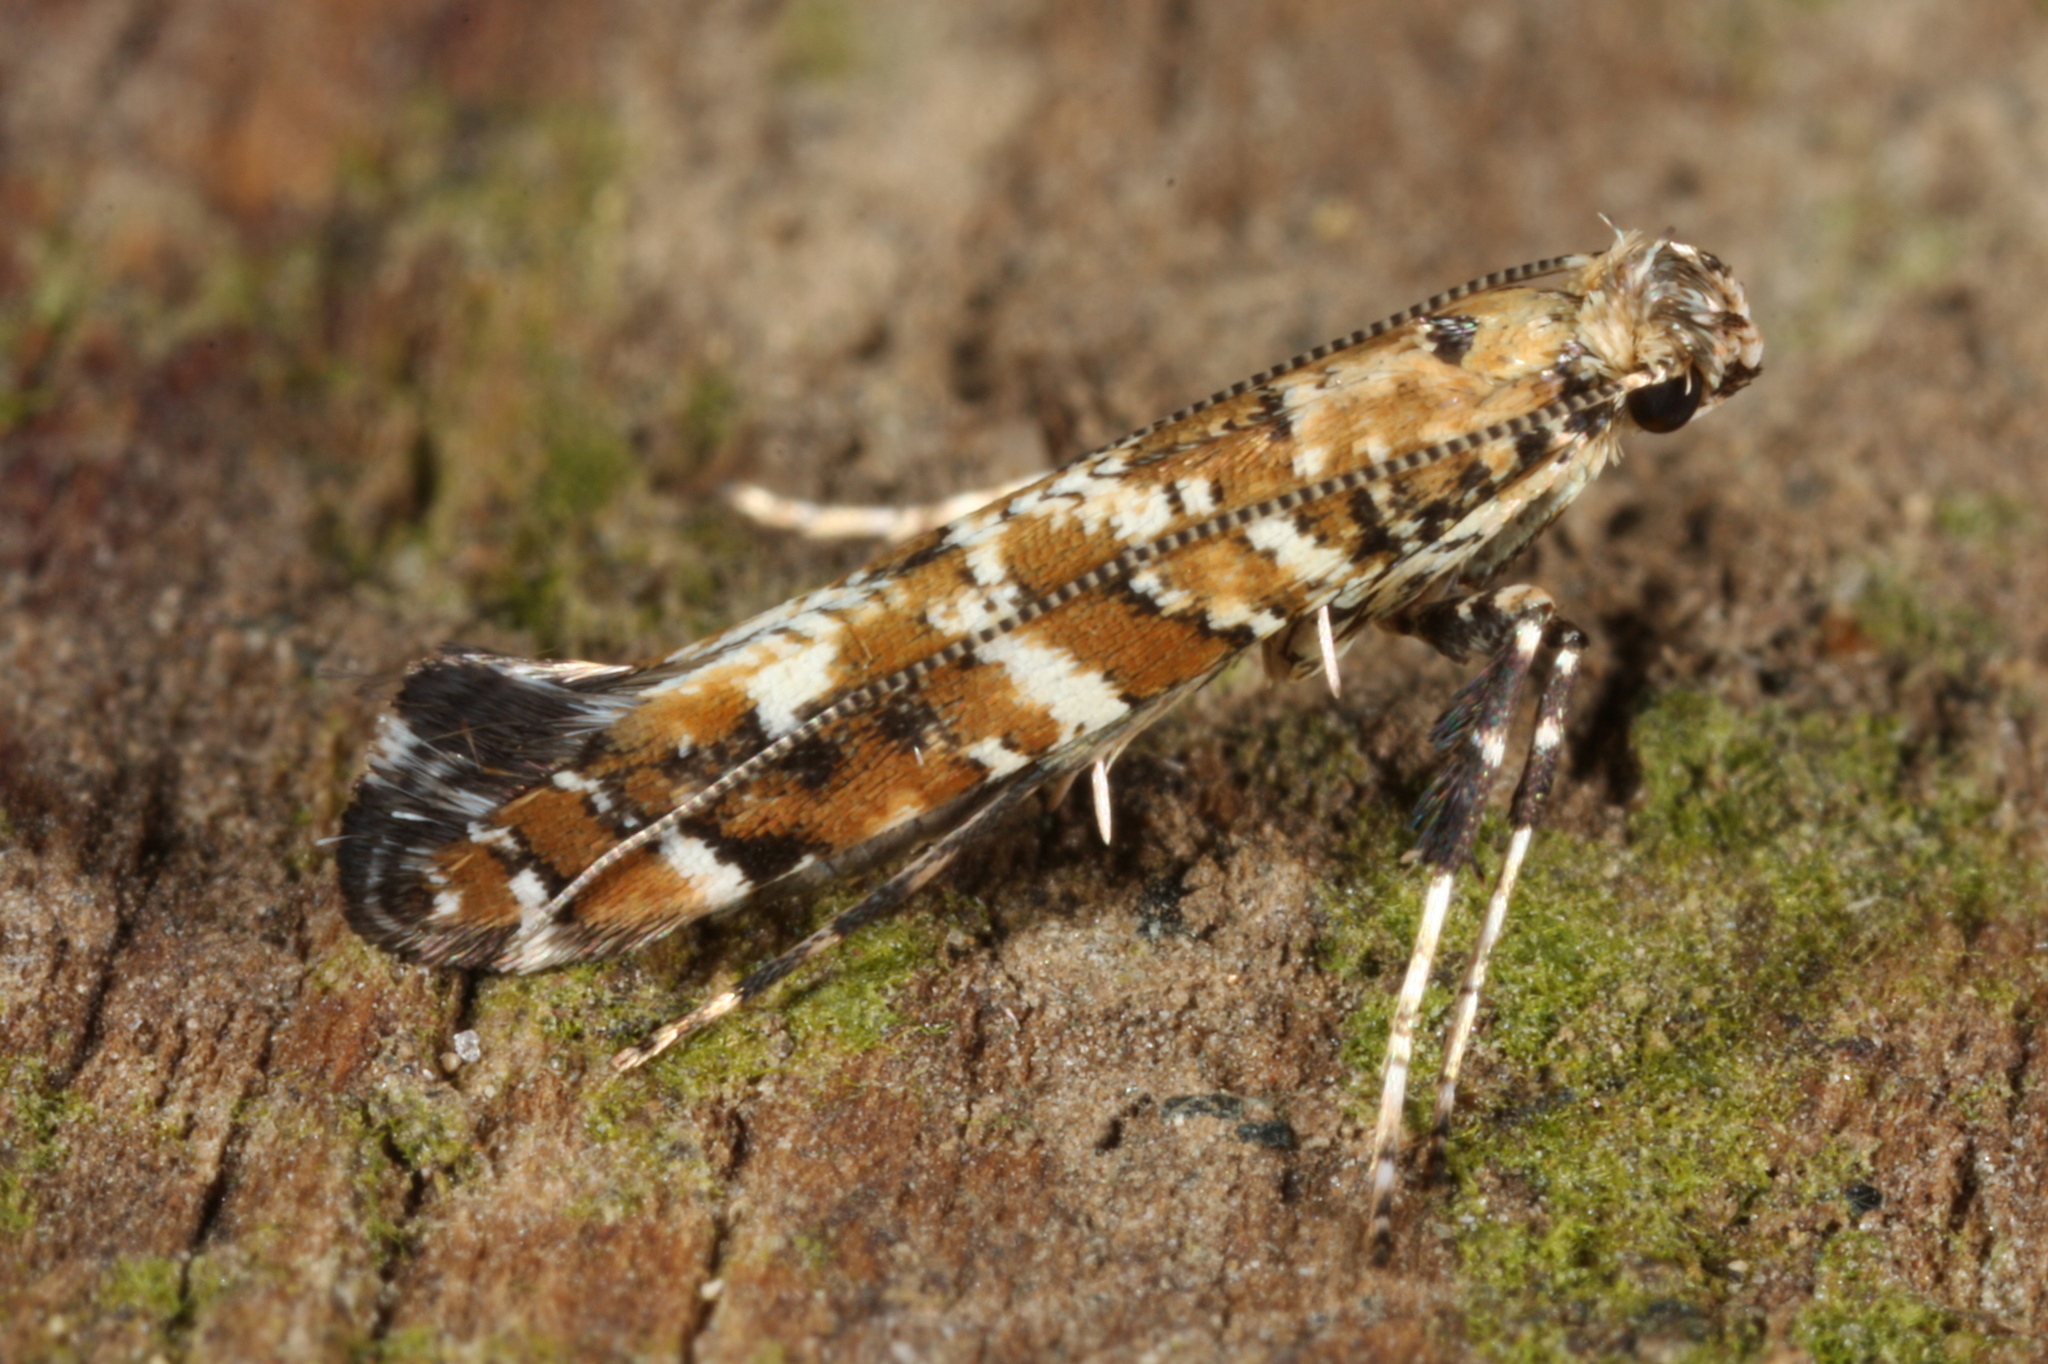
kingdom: Animalia
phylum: Arthropoda
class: Insecta
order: Lepidoptera
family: Gracillariidae
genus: Gracillaria
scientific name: Gracillaria syringella
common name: Common slender
